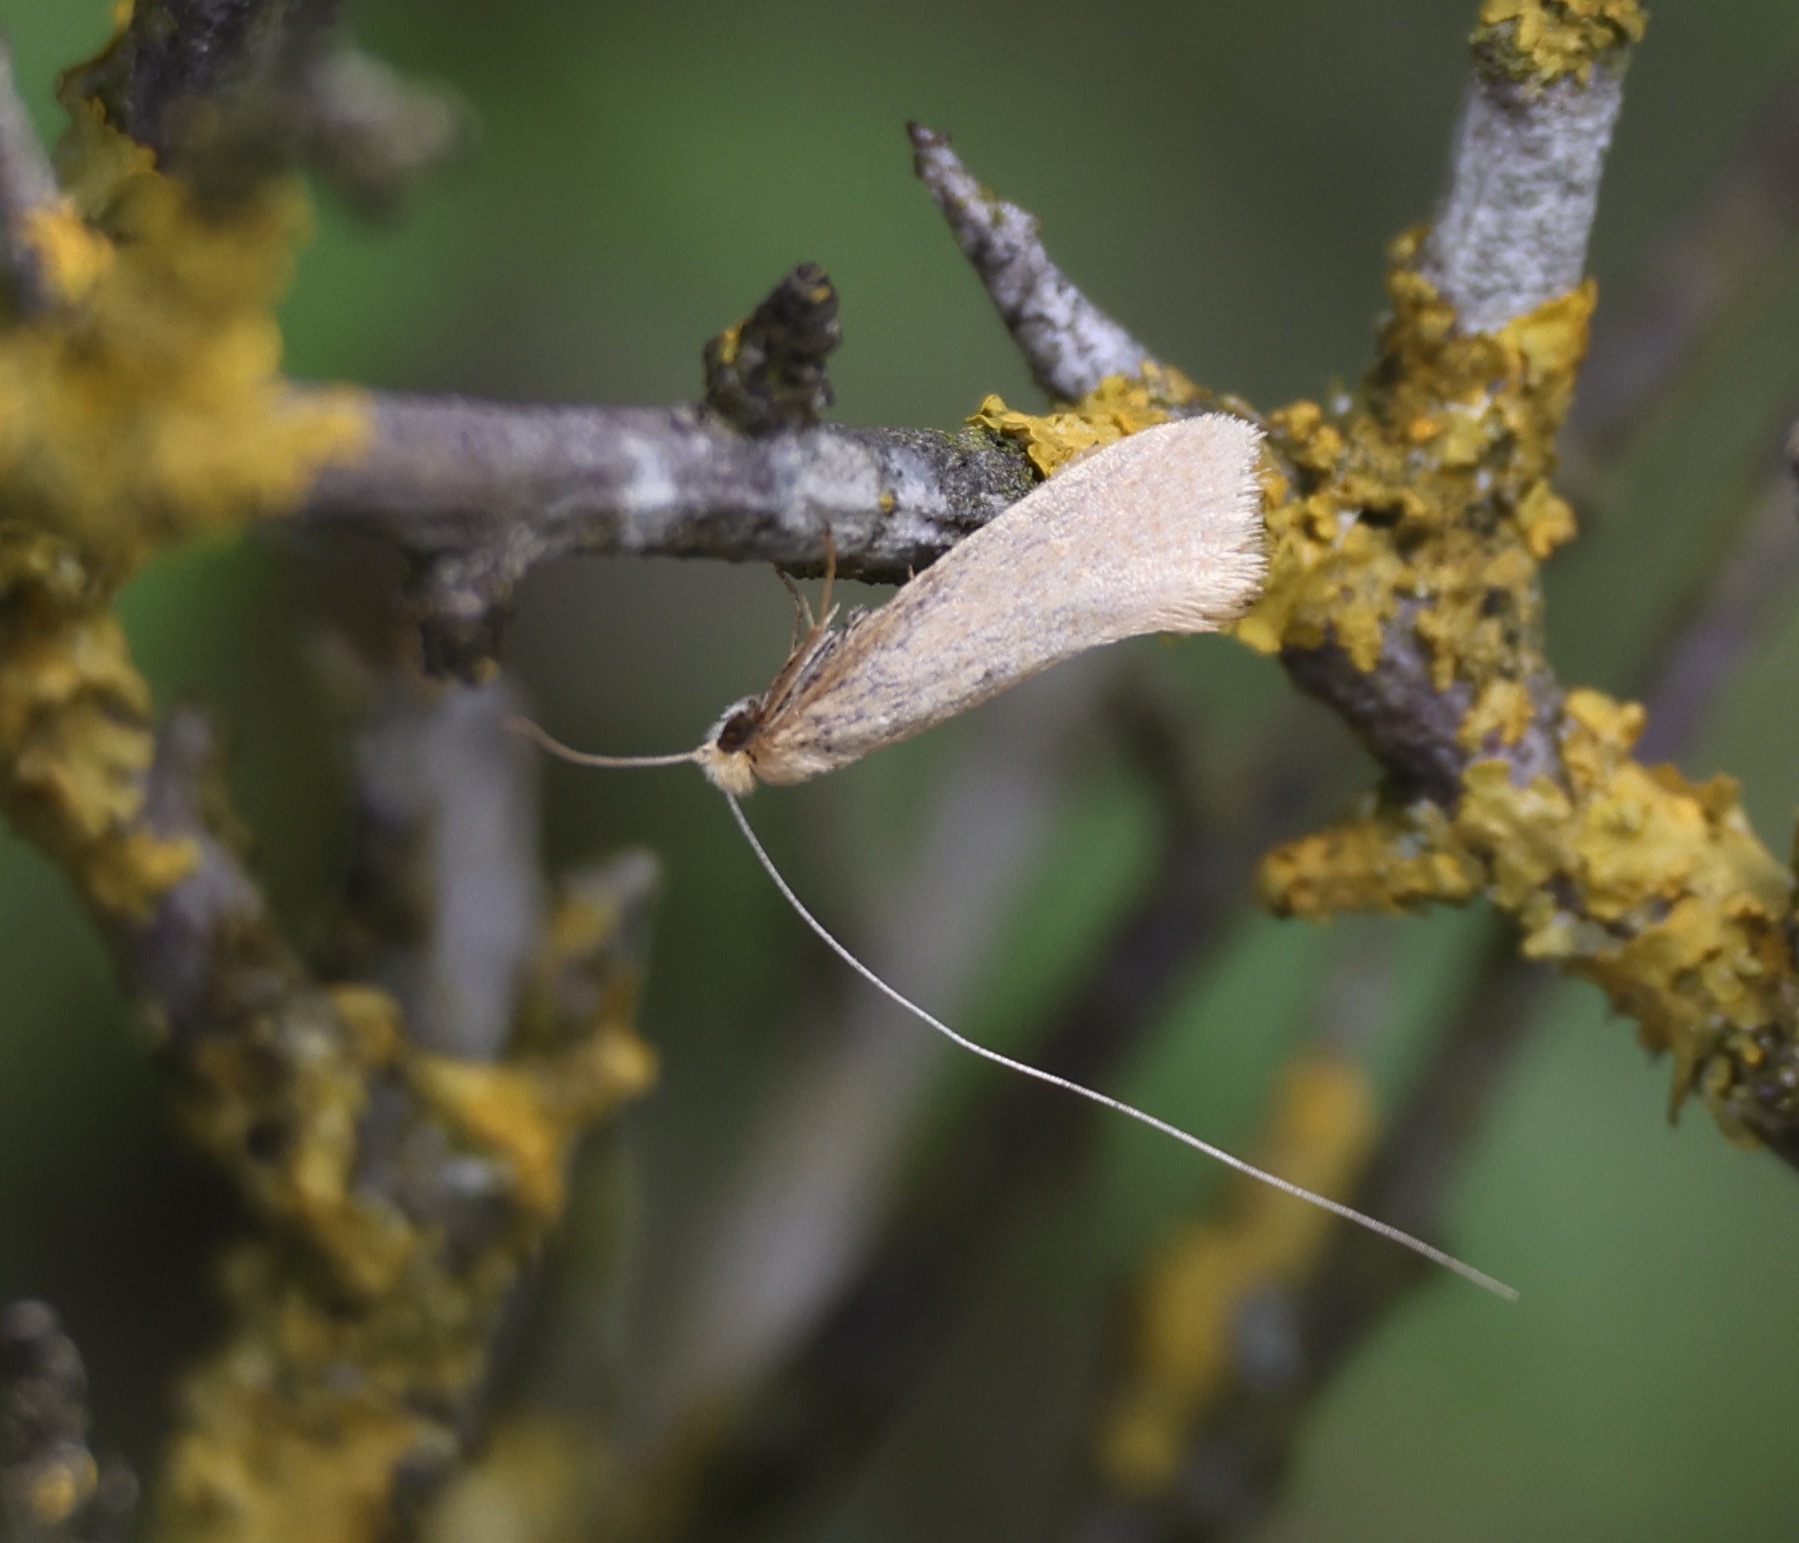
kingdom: Animalia
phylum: Arthropoda
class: Insecta
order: Lepidoptera
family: Adelidae
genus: Nematopogon
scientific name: Nematopogon swammerdamella
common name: Large long-horn
